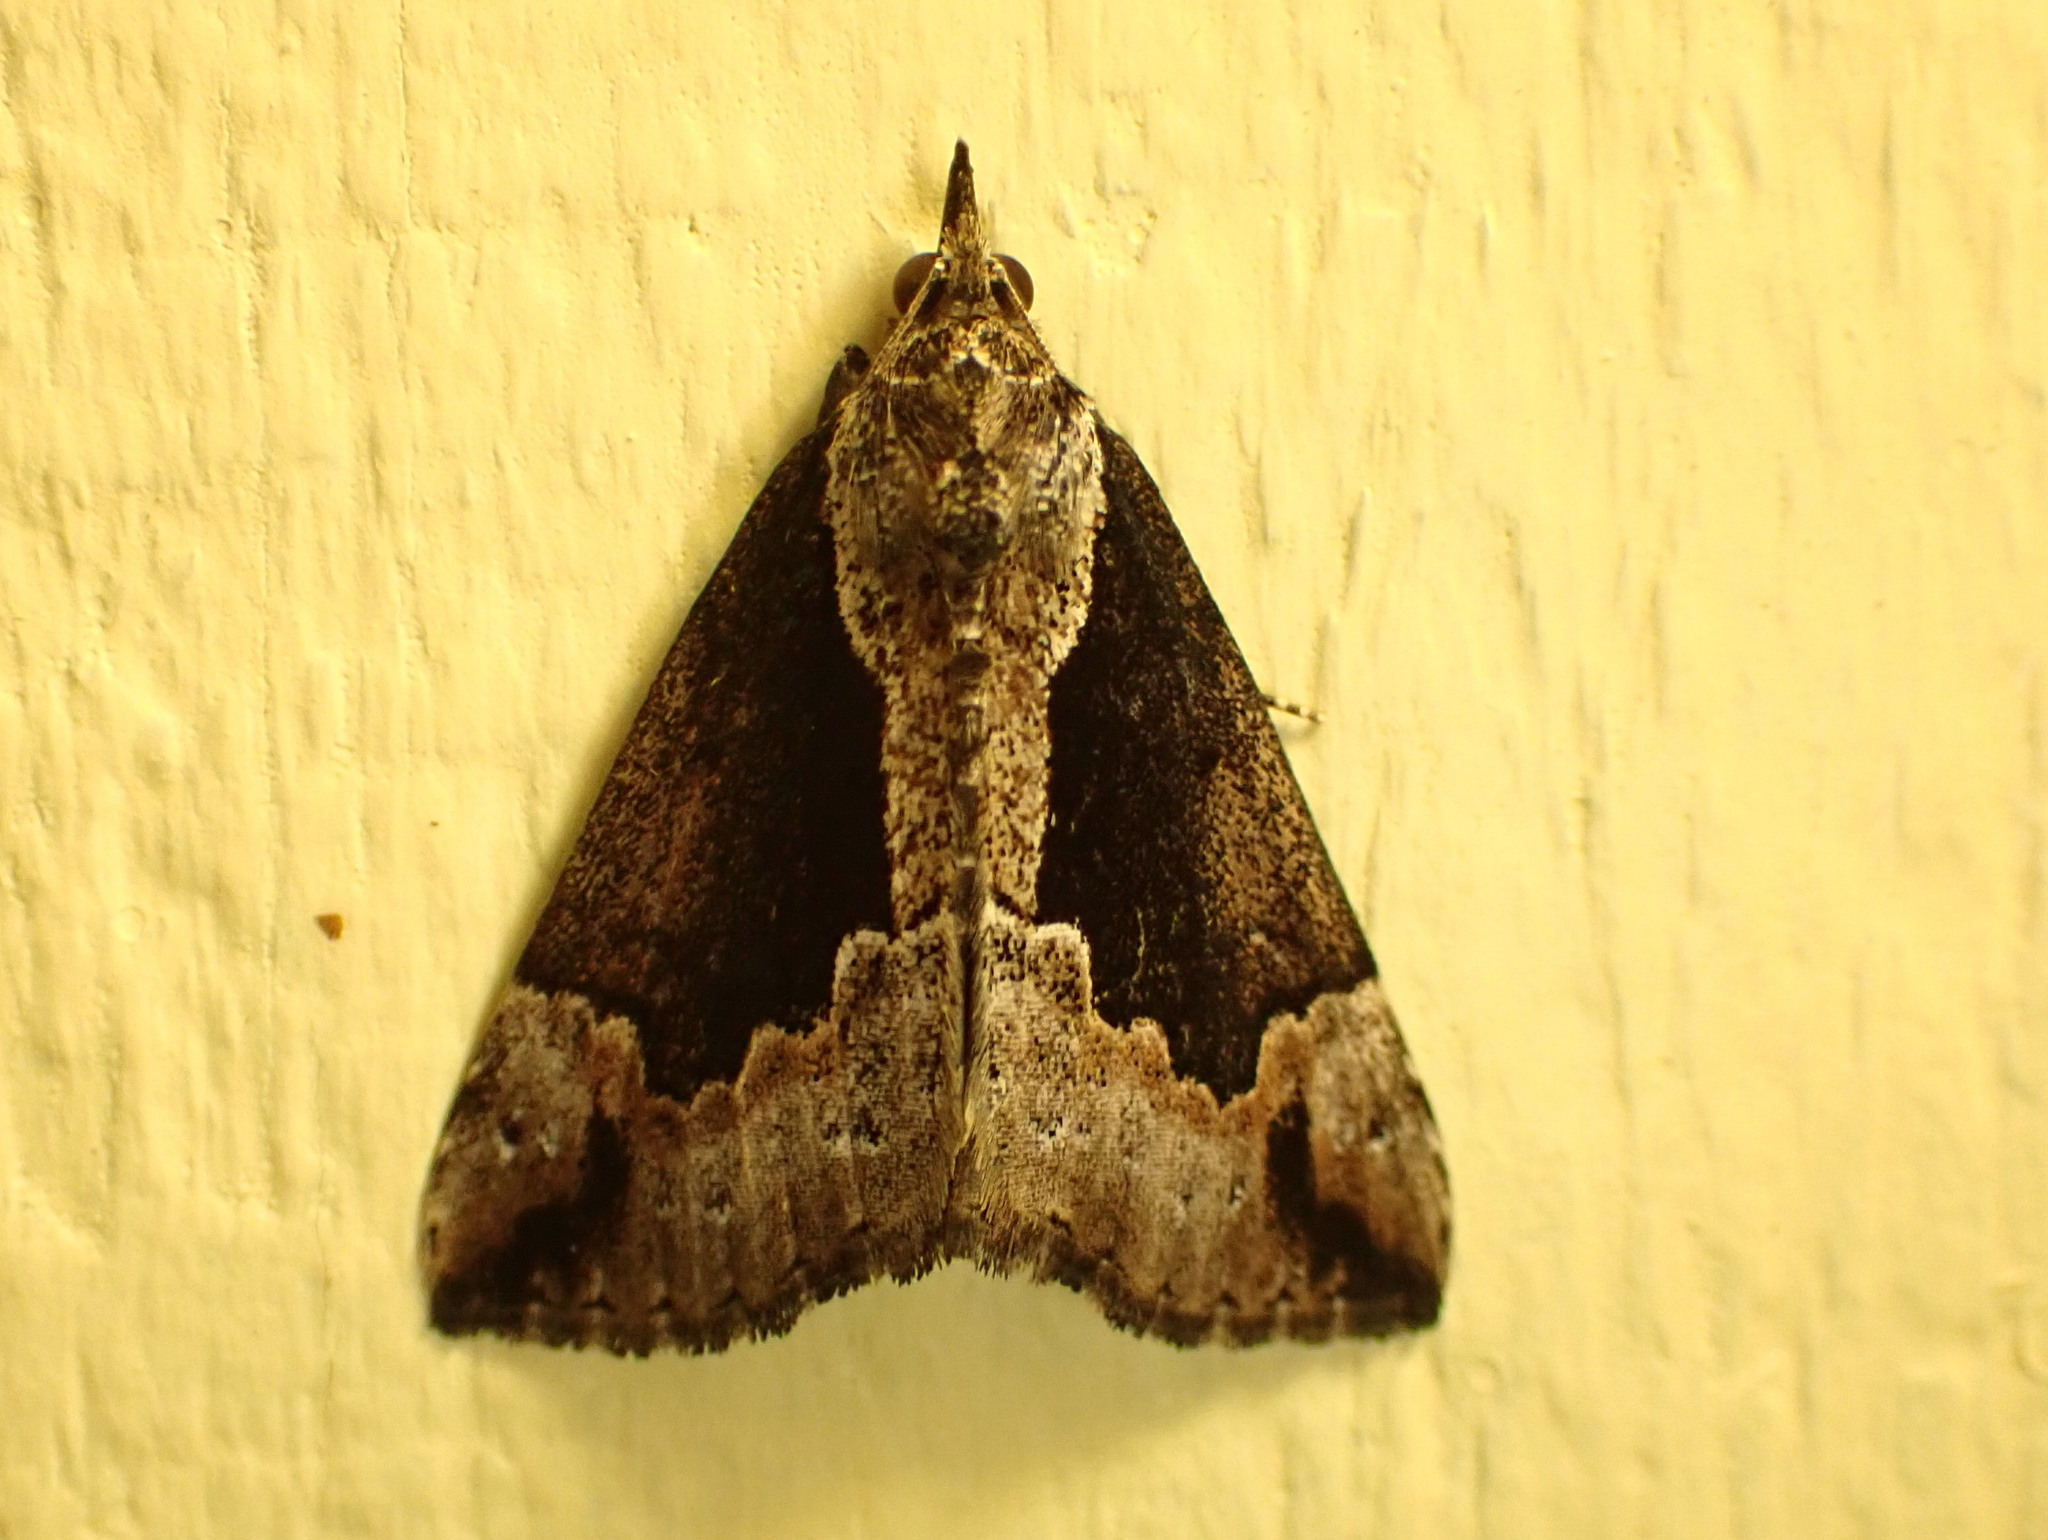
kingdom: Animalia
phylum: Arthropoda
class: Insecta
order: Lepidoptera
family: Erebidae
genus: Hypena
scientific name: Hypena baltimoralis
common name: Baltimore snout
